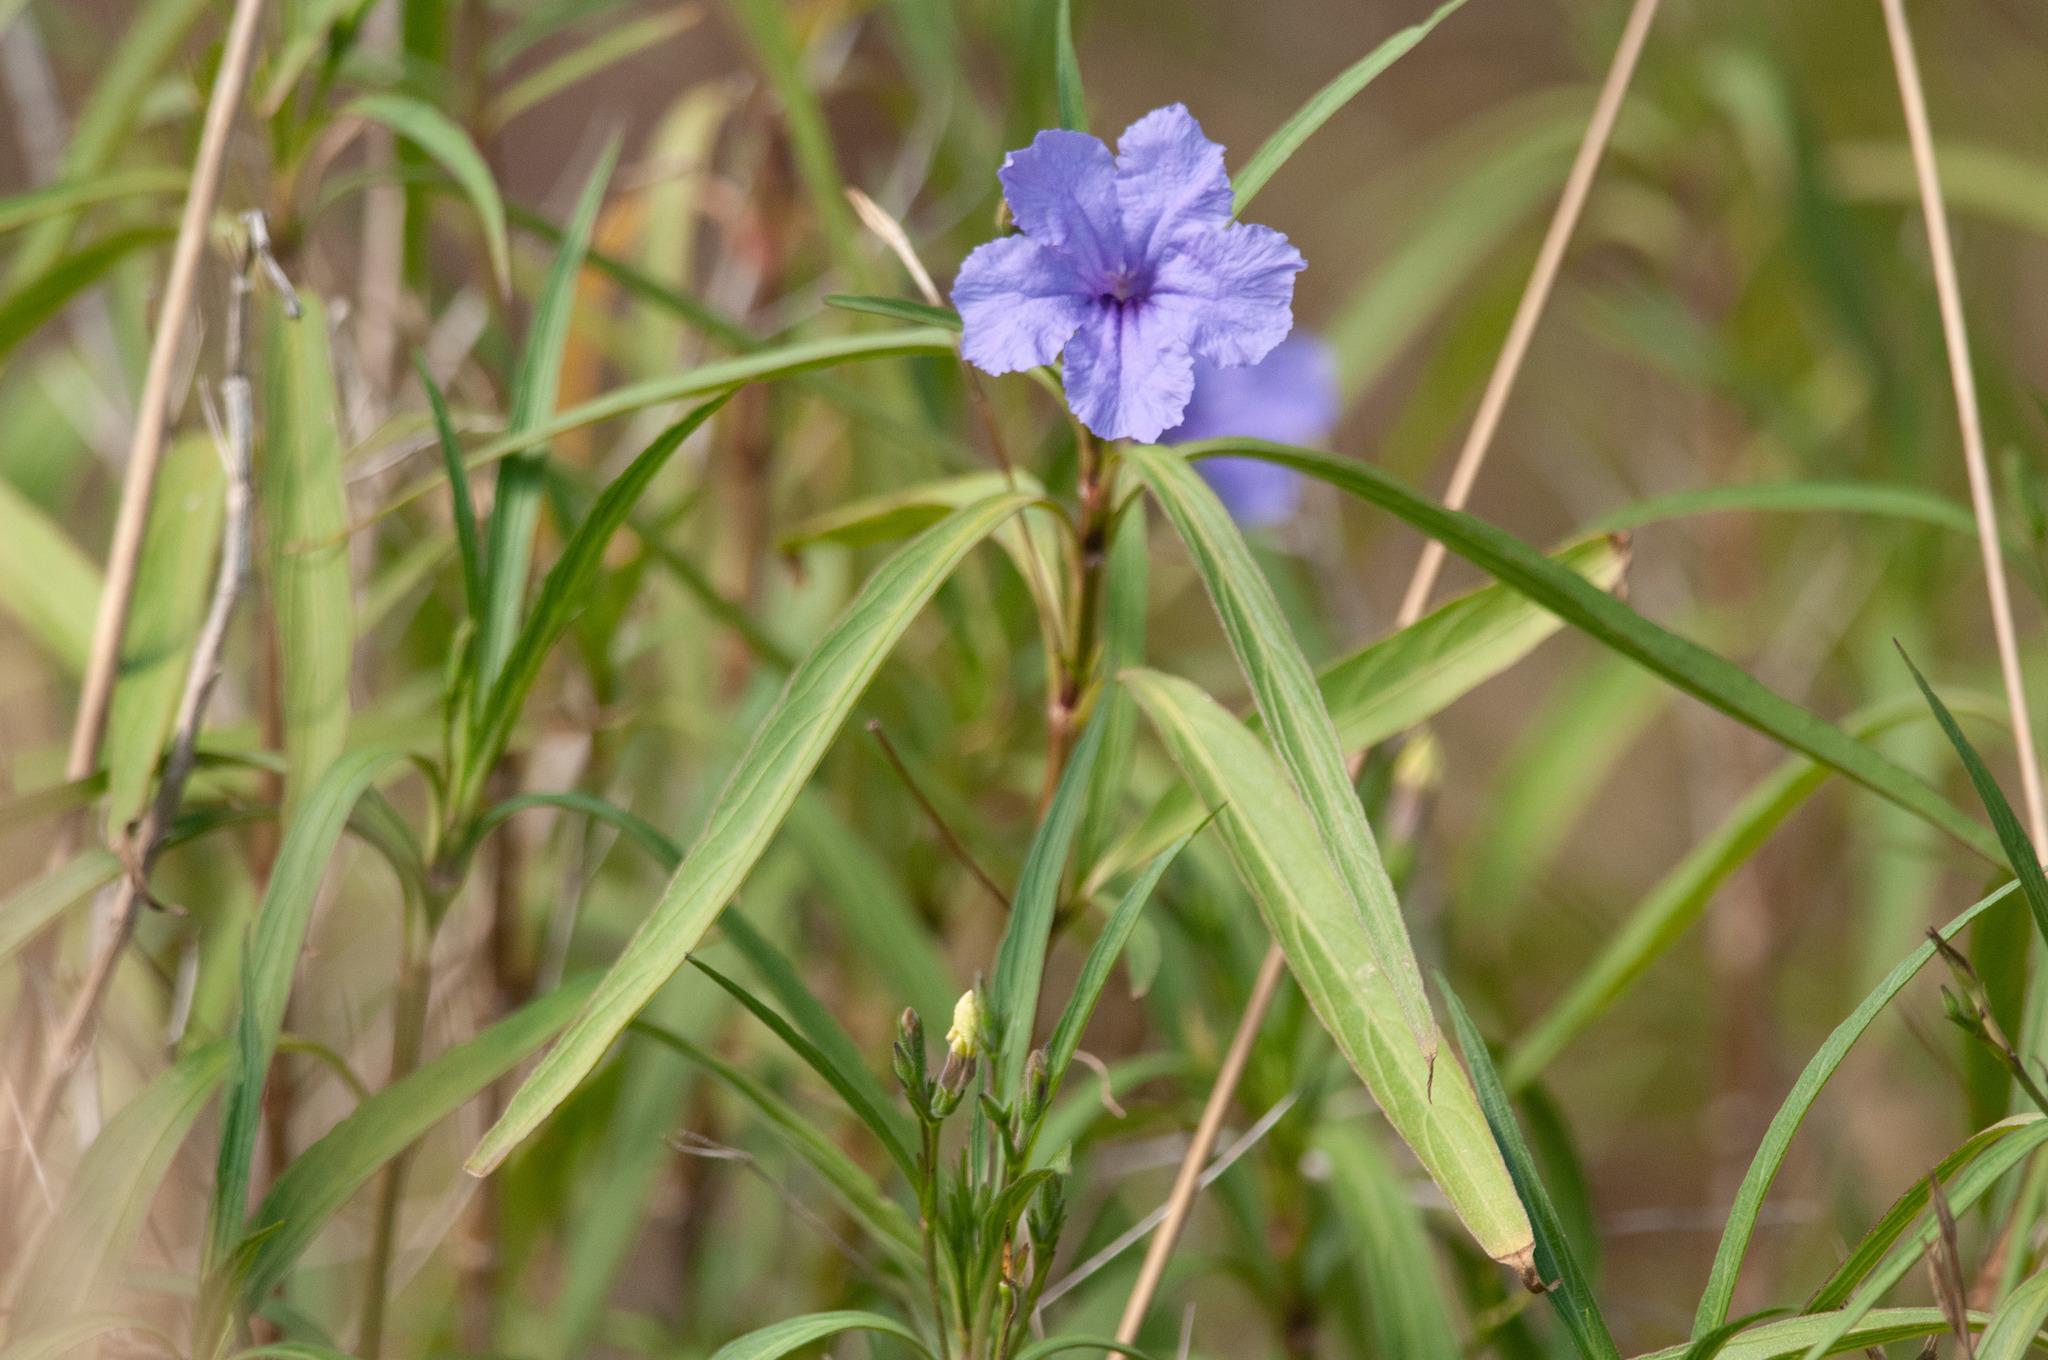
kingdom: Plantae
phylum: Tracheophyta
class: Magnoliopsida
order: Lamiales
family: Acanthaceae
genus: Ruellia
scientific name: Ruellia simplex
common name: Softseed wild petunia
